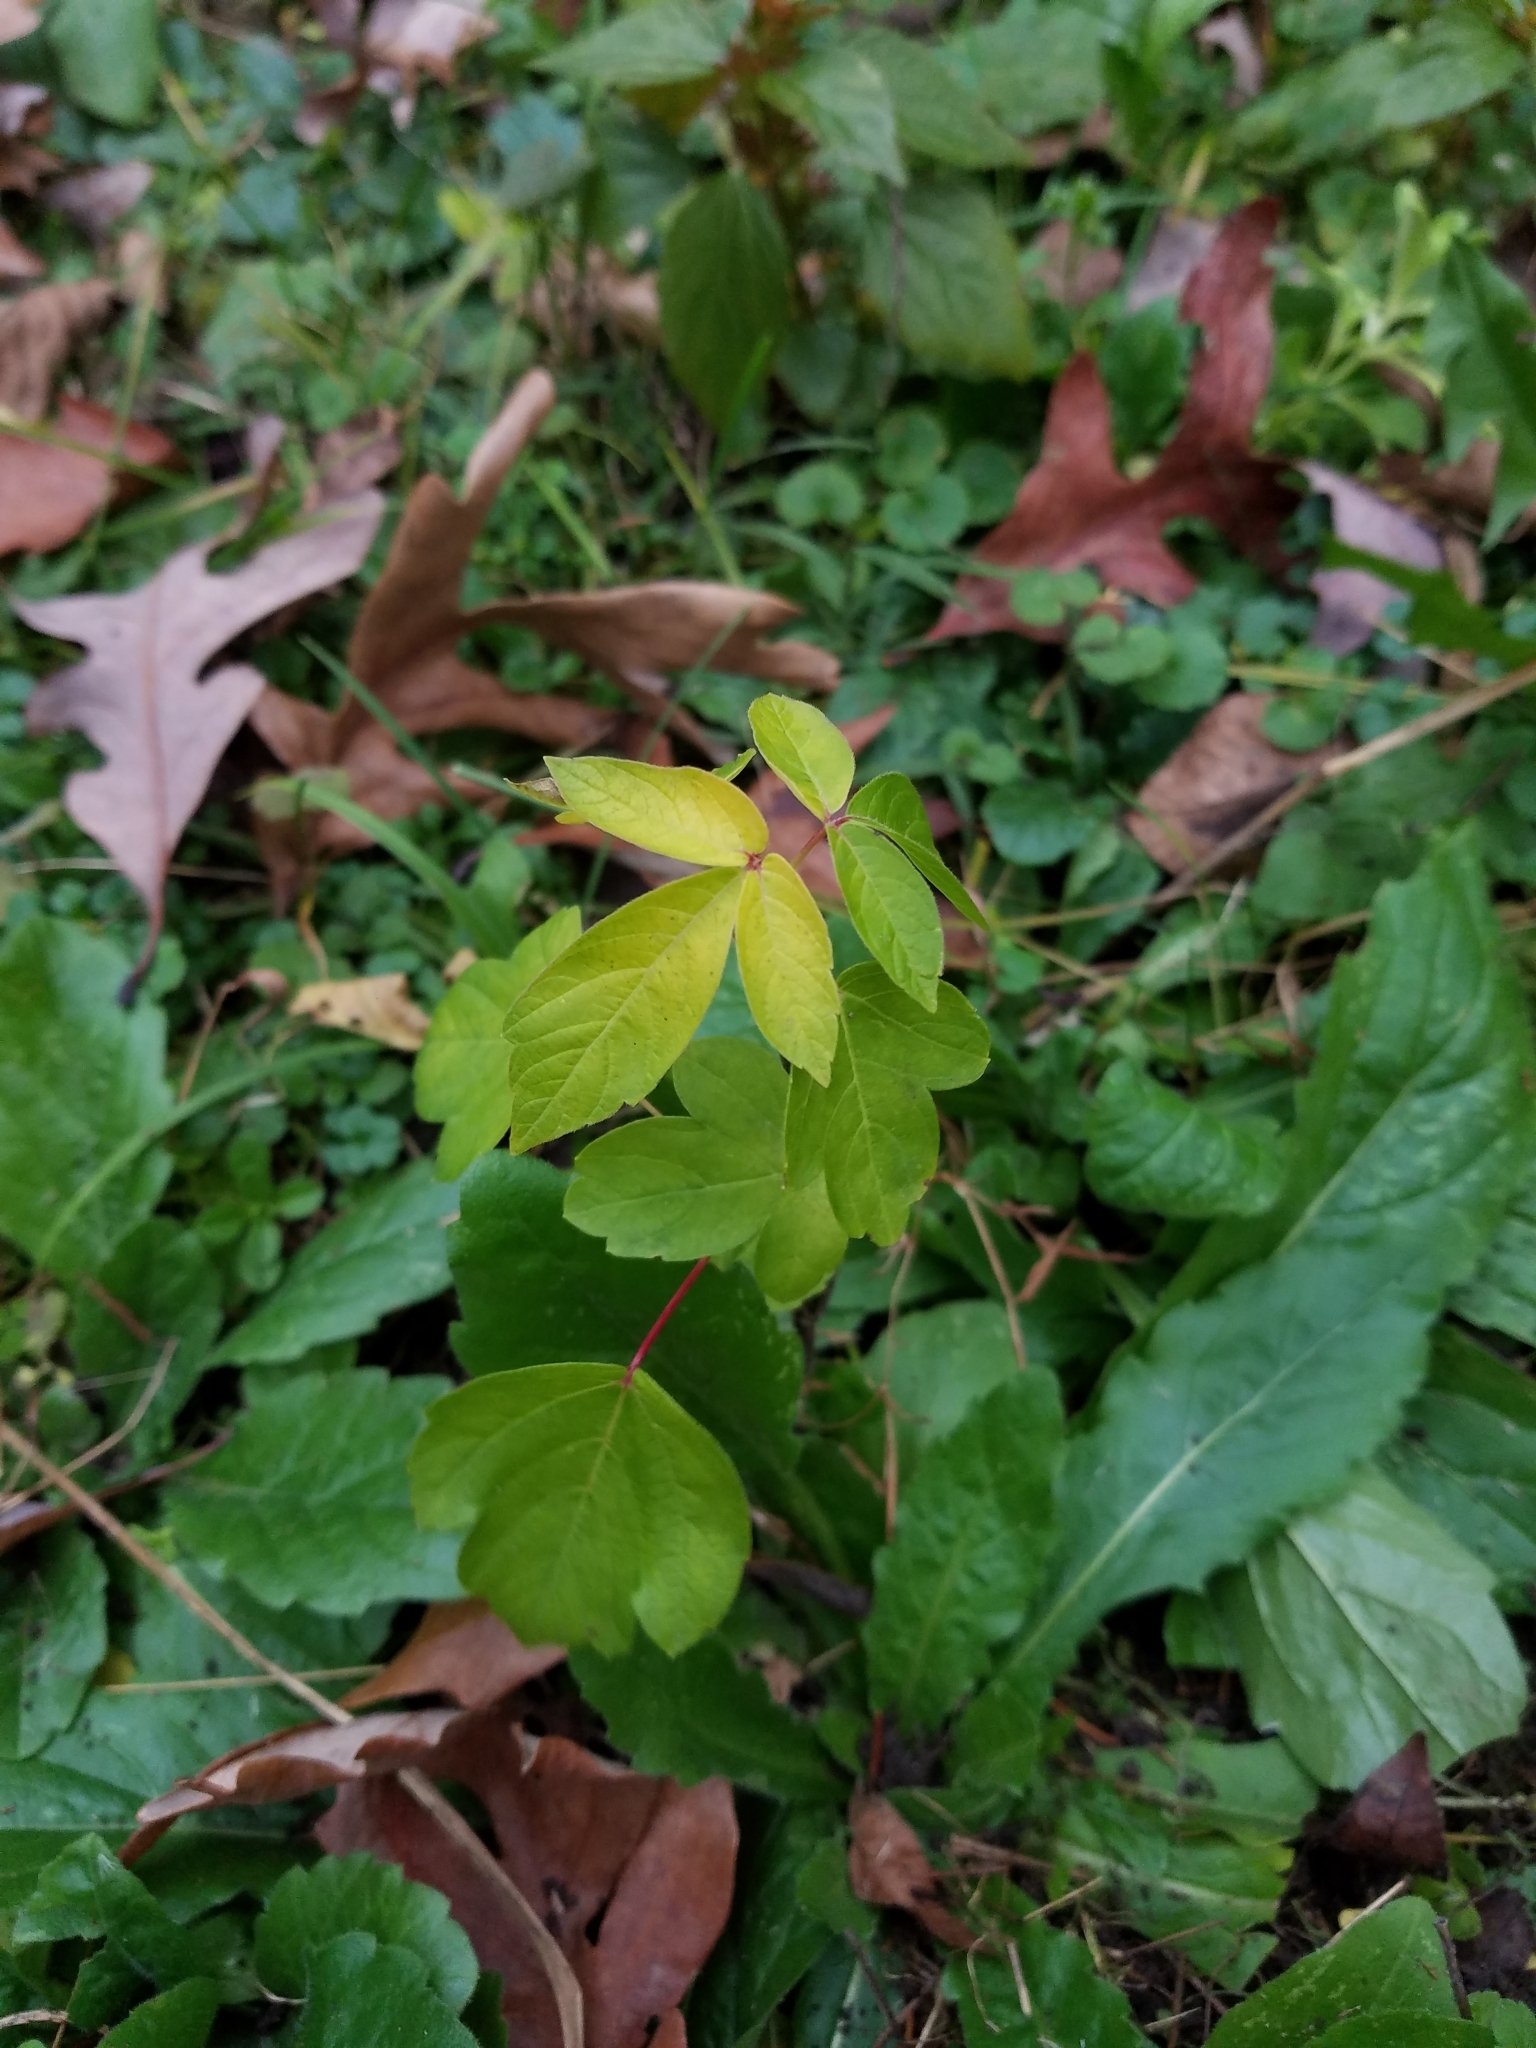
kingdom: Plantae
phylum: Tracheophyta
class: Magnoliopsida
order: Sapindales
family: Sapindaceae
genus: Acer
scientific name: Acer negundo
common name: Ashleaf maple
